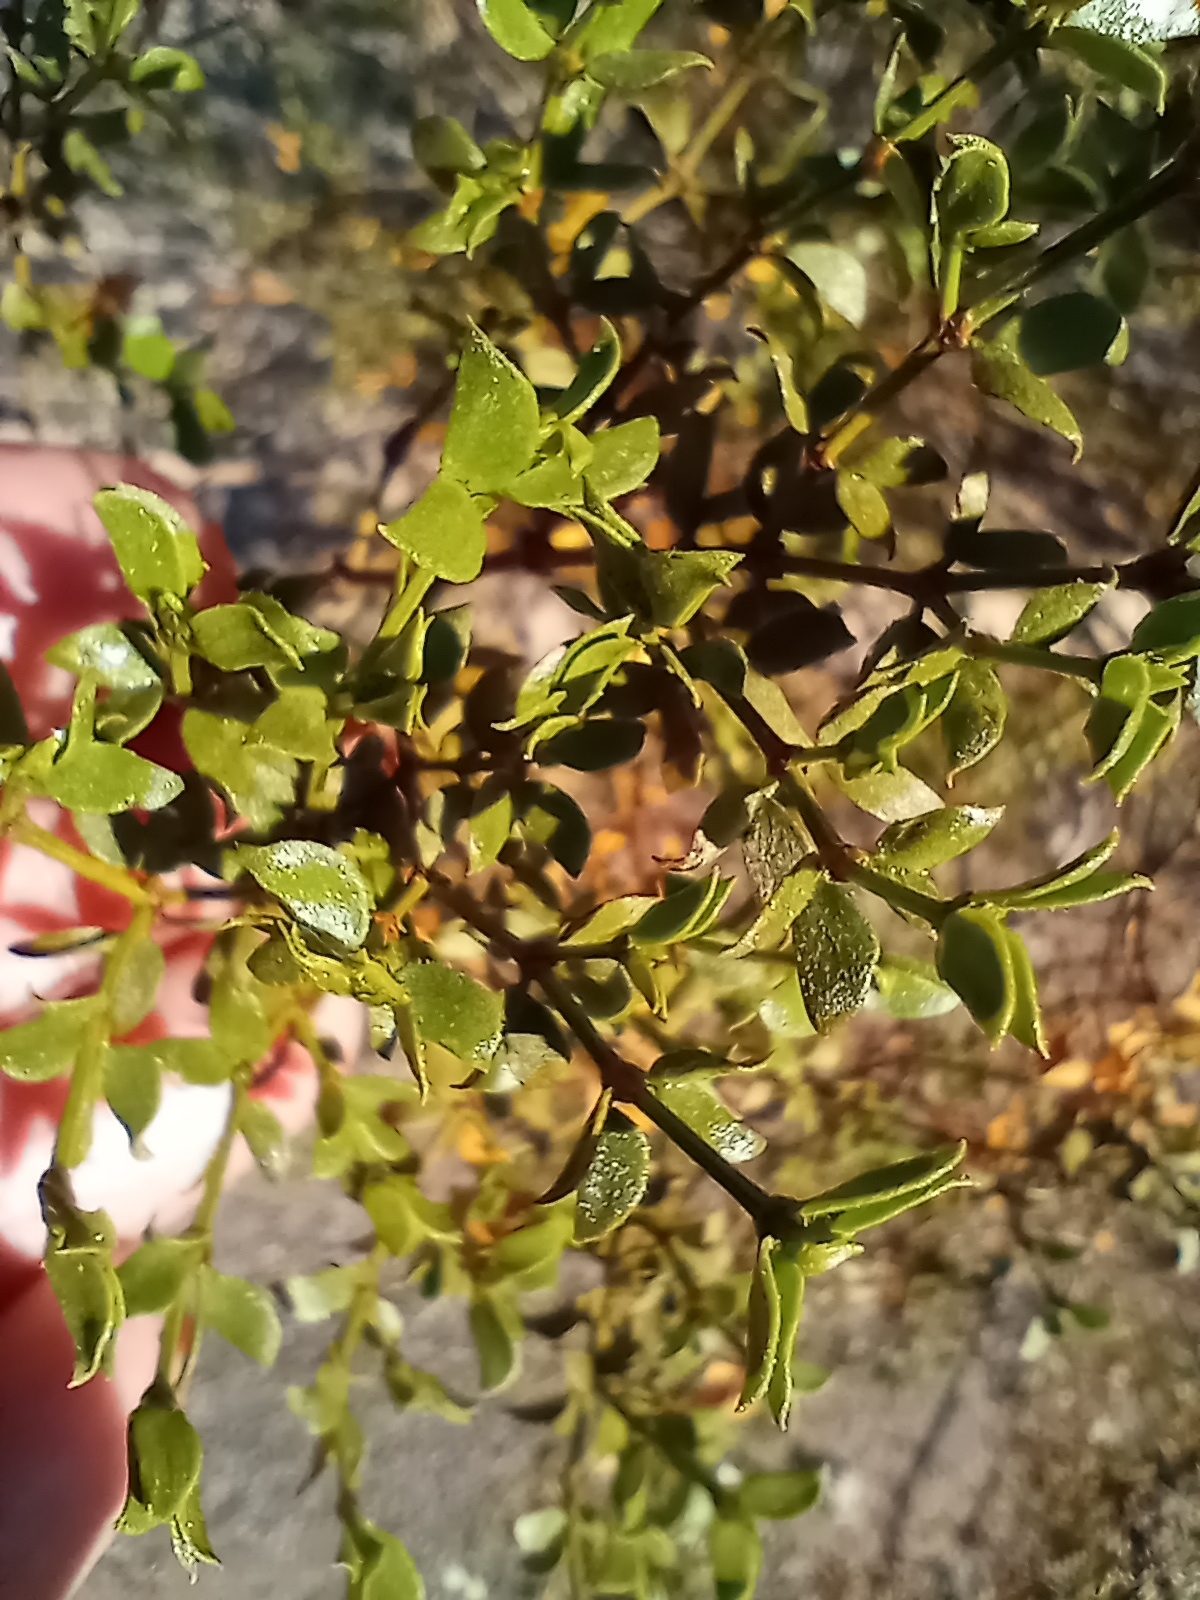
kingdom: Plantae
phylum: Tracheophyta
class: Magnoliopsida
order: Zygophyllales
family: Zygophyllaceae
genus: Larrea
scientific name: Larrea tridentata
